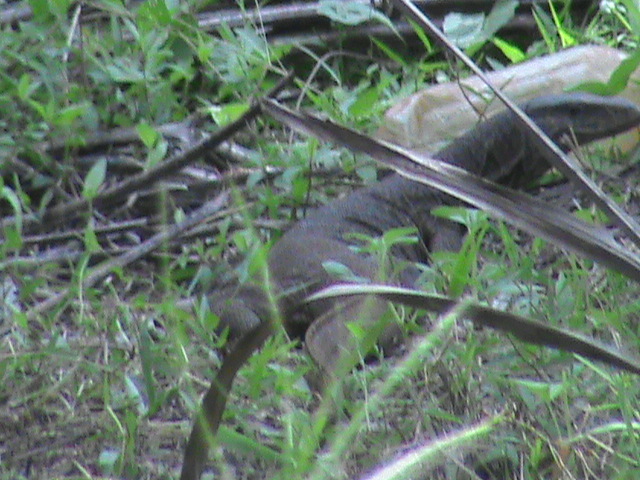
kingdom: Animalia
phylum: Chordata
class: Squamata
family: Varanidae
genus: Varanus
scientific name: Varanus bengalensis
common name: Bengal monitor
